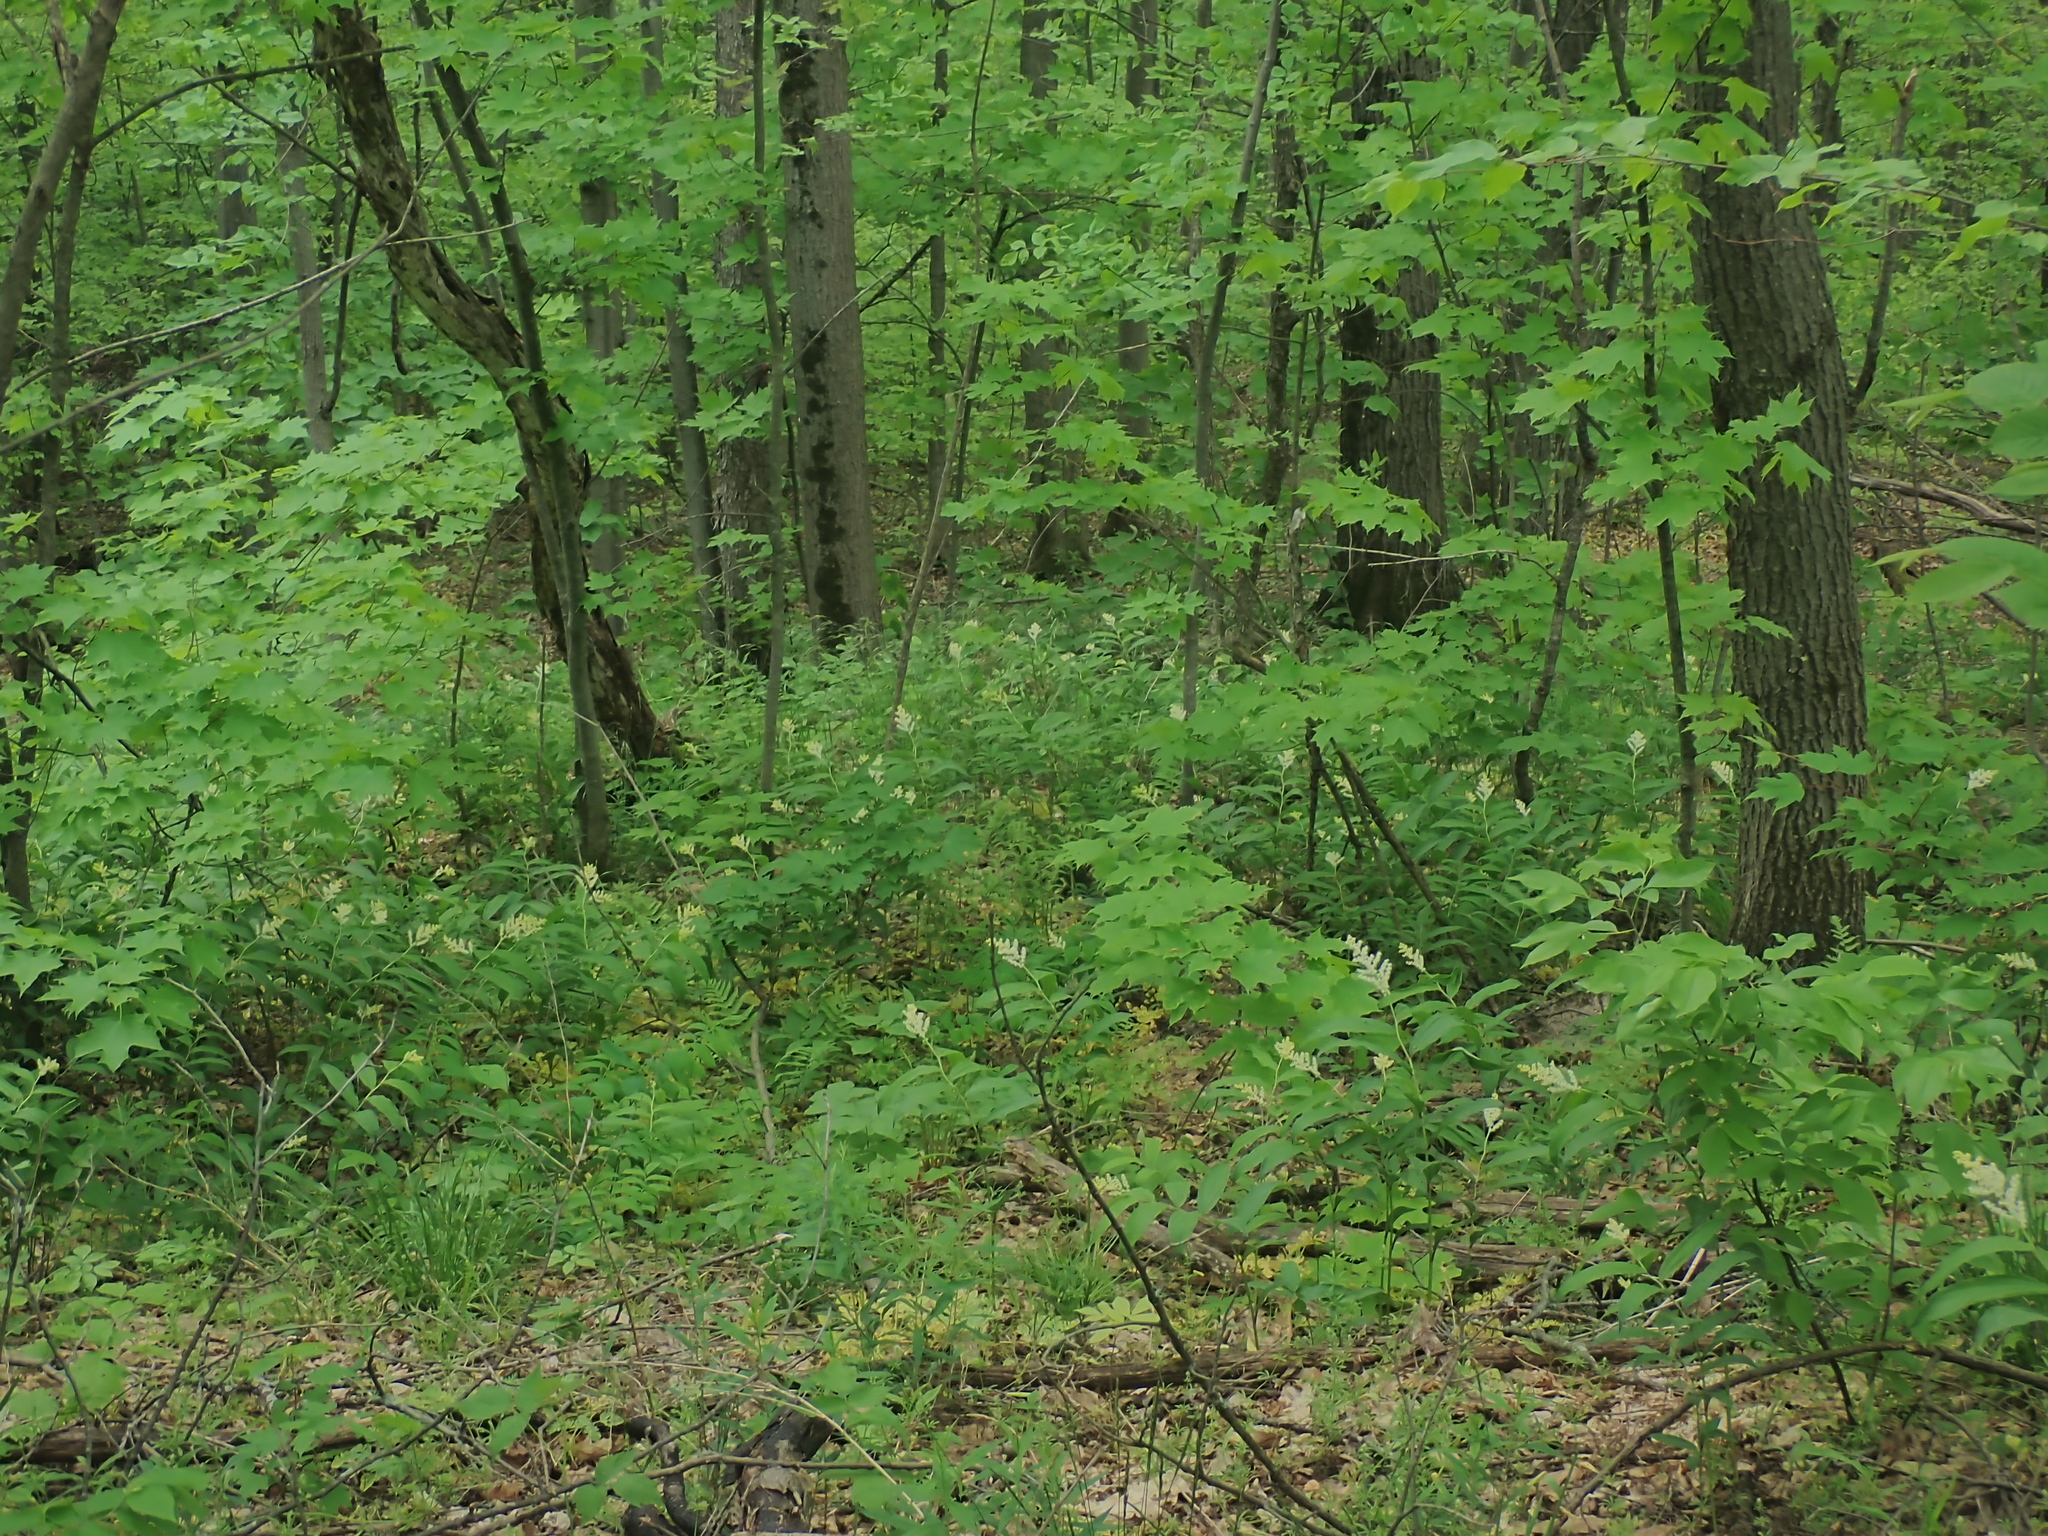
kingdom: Plantae
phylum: Tracheophyta
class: Liliopsida
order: Asparagales
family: Asparagaceae
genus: Maianthemum
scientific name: Maianthemum racemosum
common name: False spikenard
